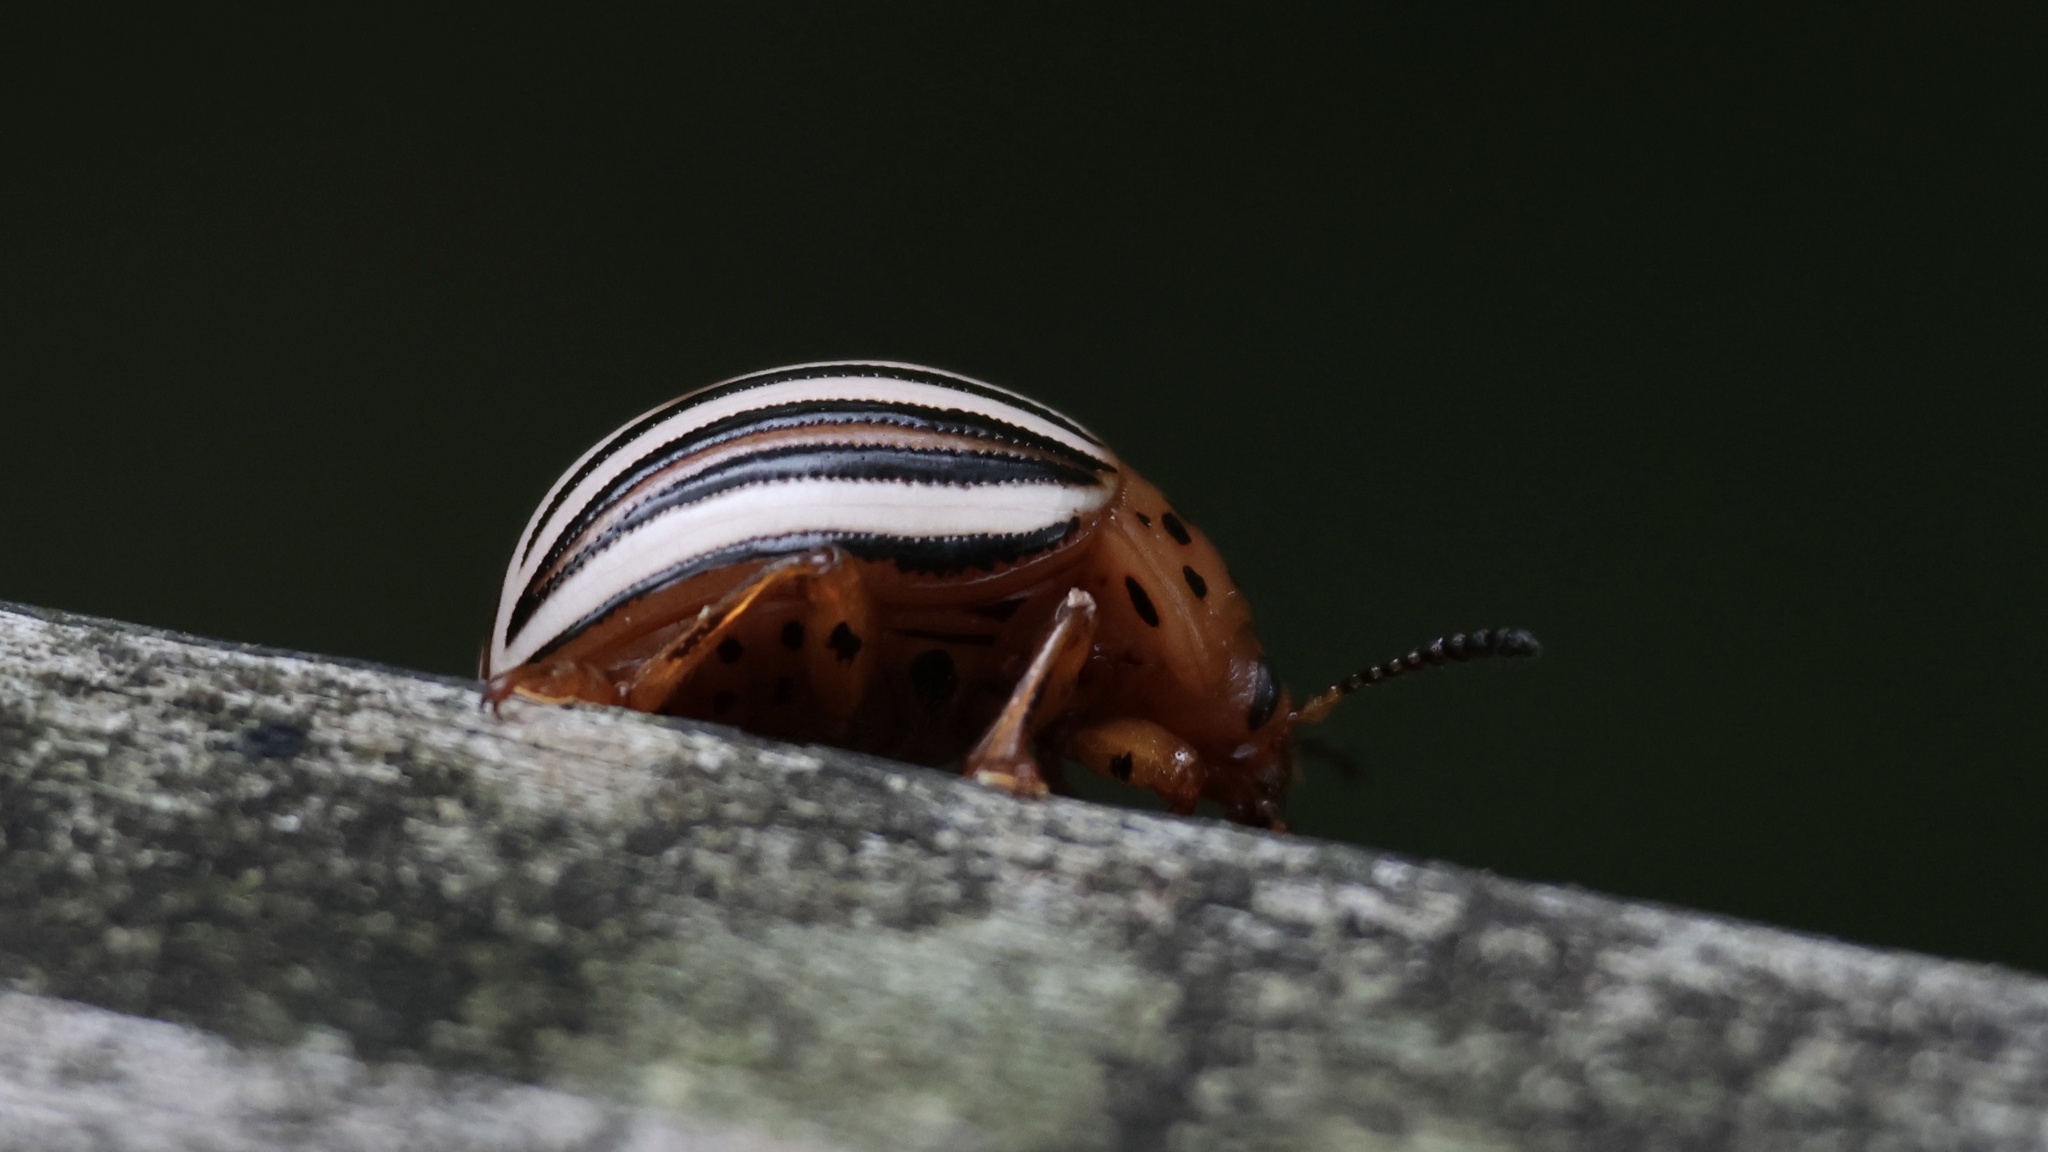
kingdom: Animalia
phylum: Arthropoda
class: Insecta
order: Coleoptera
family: Chrysomelidae
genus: Leptinotarsa
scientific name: Leptinotarsa juncta
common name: False potato beetle
